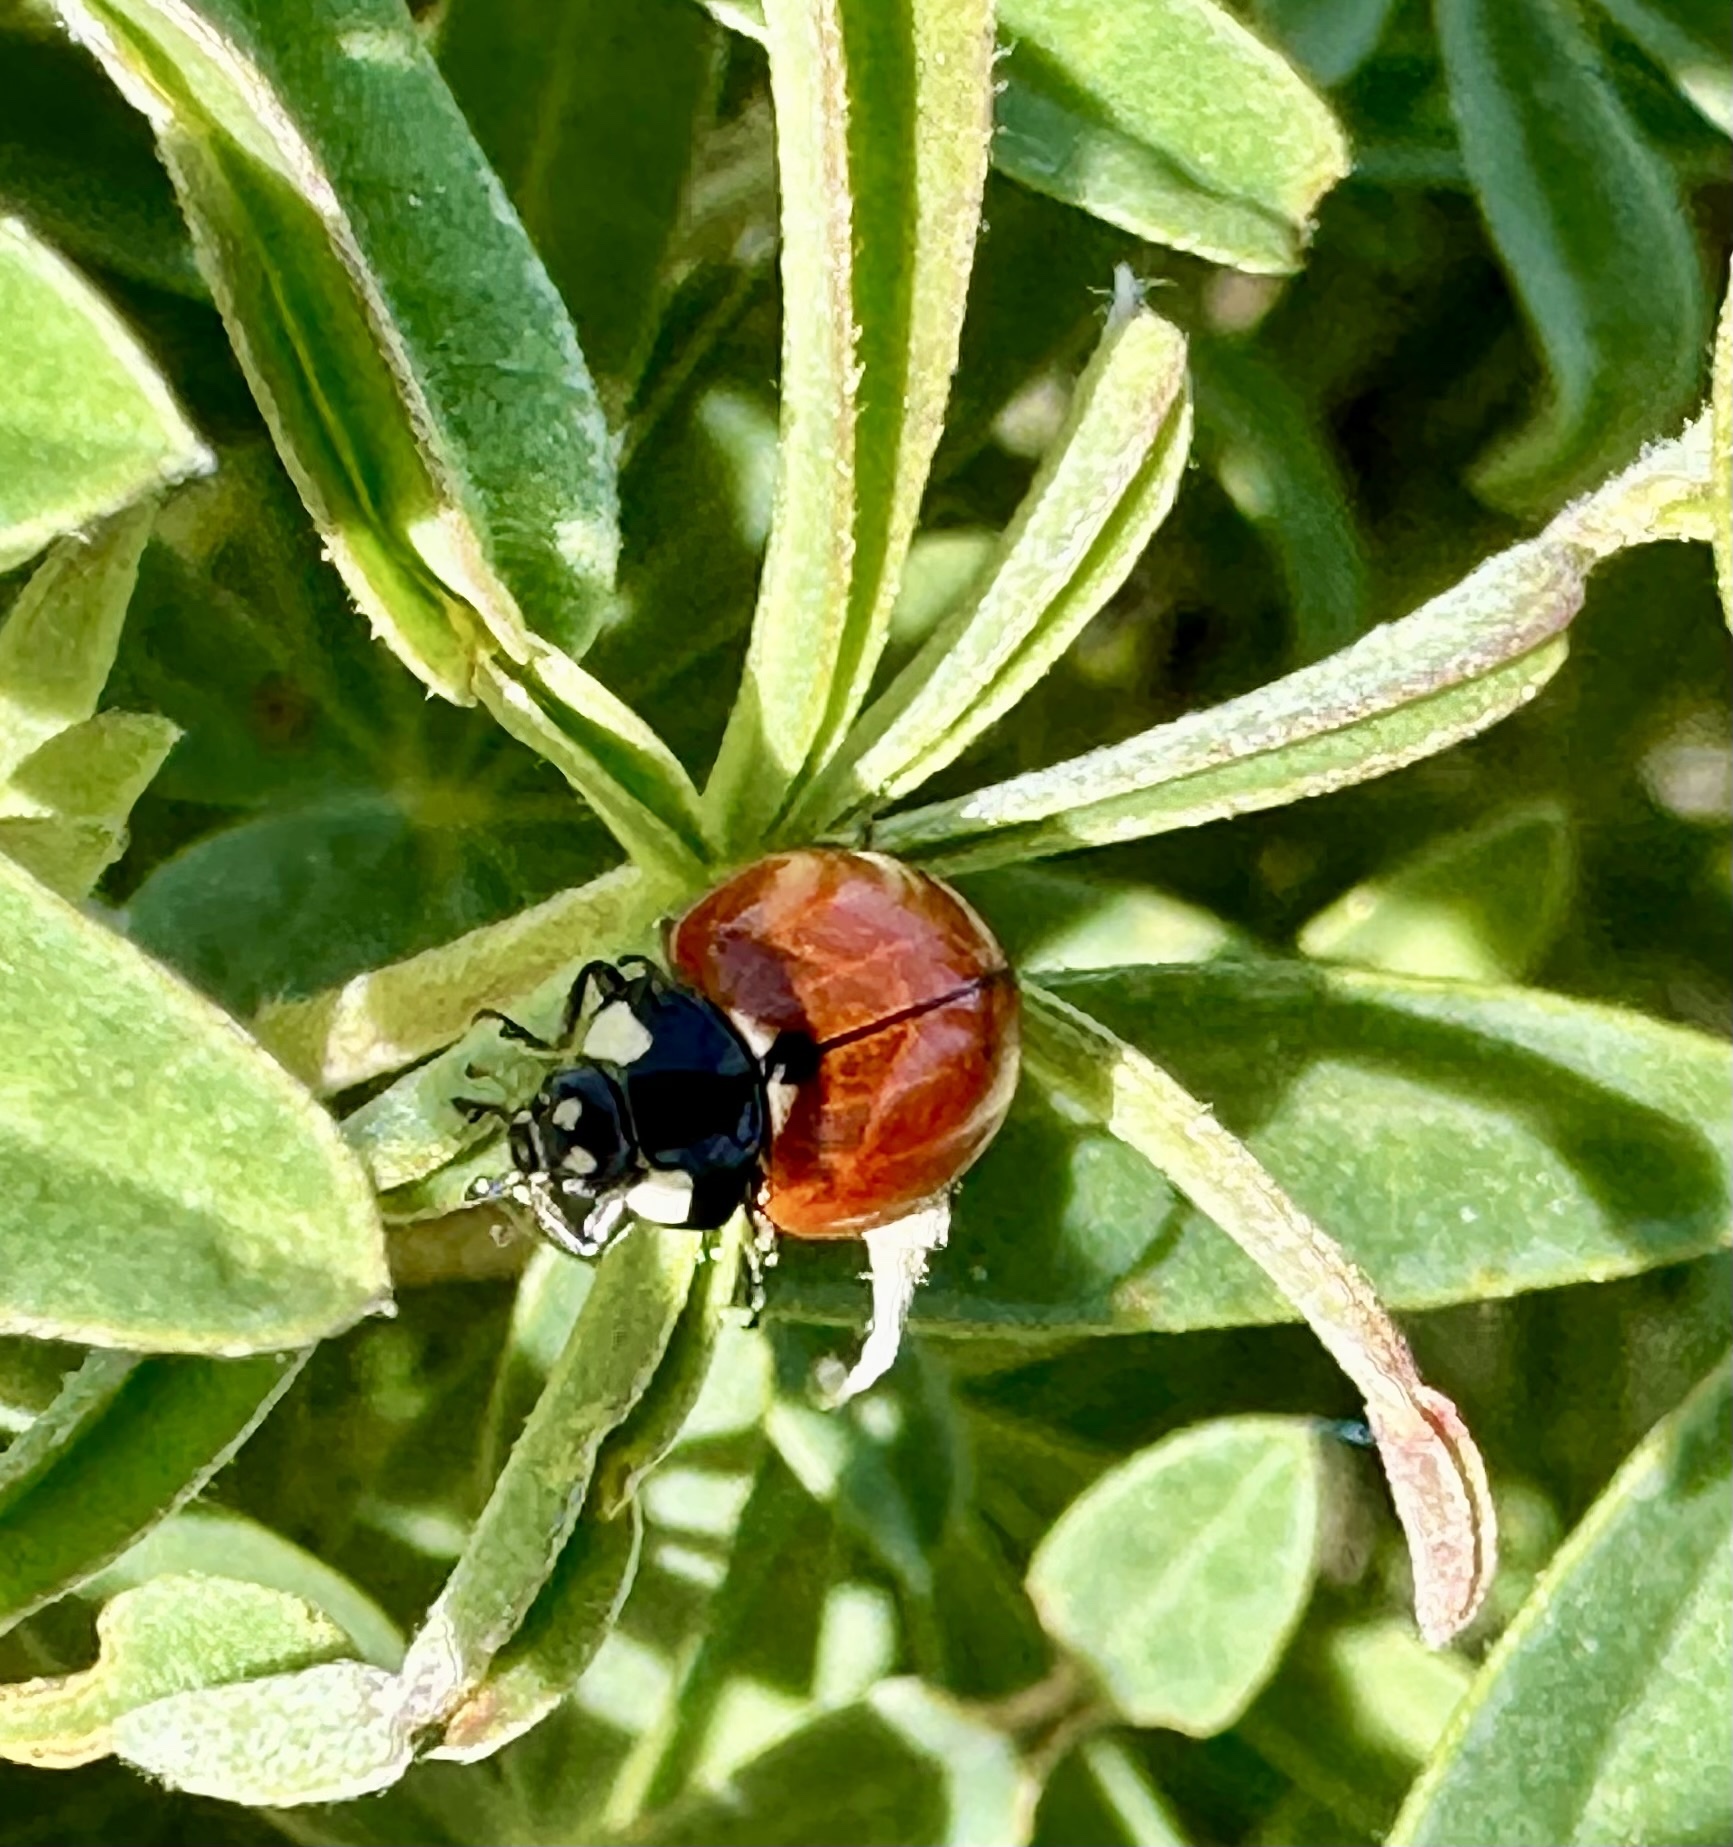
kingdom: Animalia
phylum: Arthropoda
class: Insecta
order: Coleoptera
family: Coccinellidae
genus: Coccinella
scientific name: Coccinella californica
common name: Lady beetle
